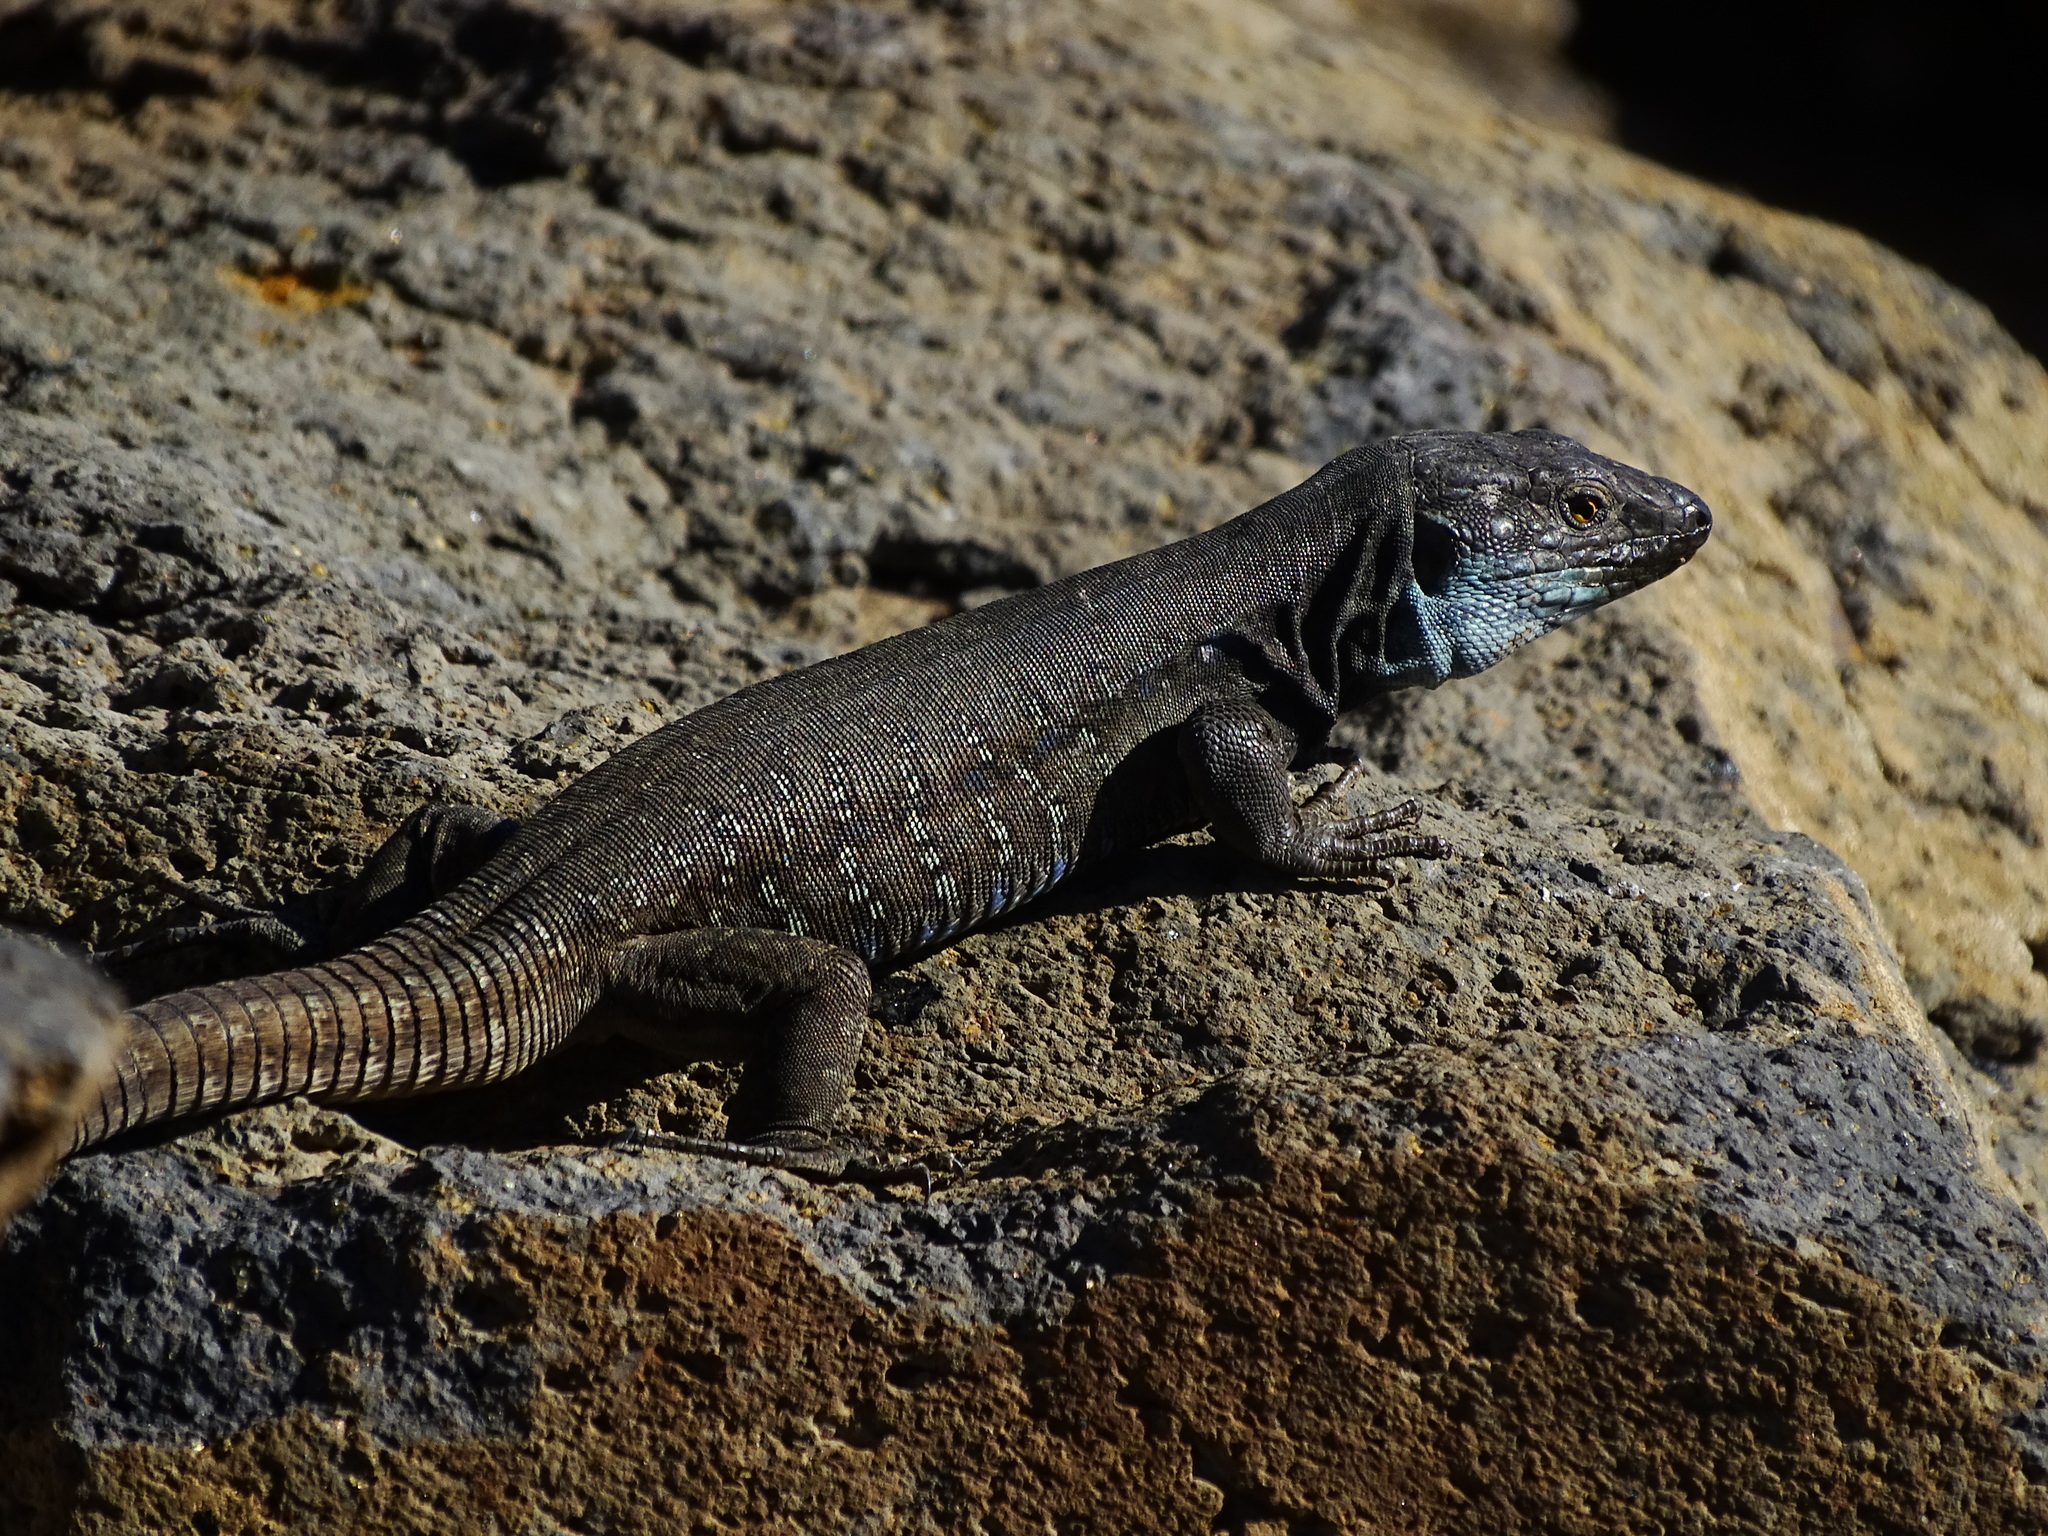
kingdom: Animalia
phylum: Chordata
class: Squamata
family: Lacertidae
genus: Gallotia
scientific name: Gallotia galloti
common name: Gallot's lizard
